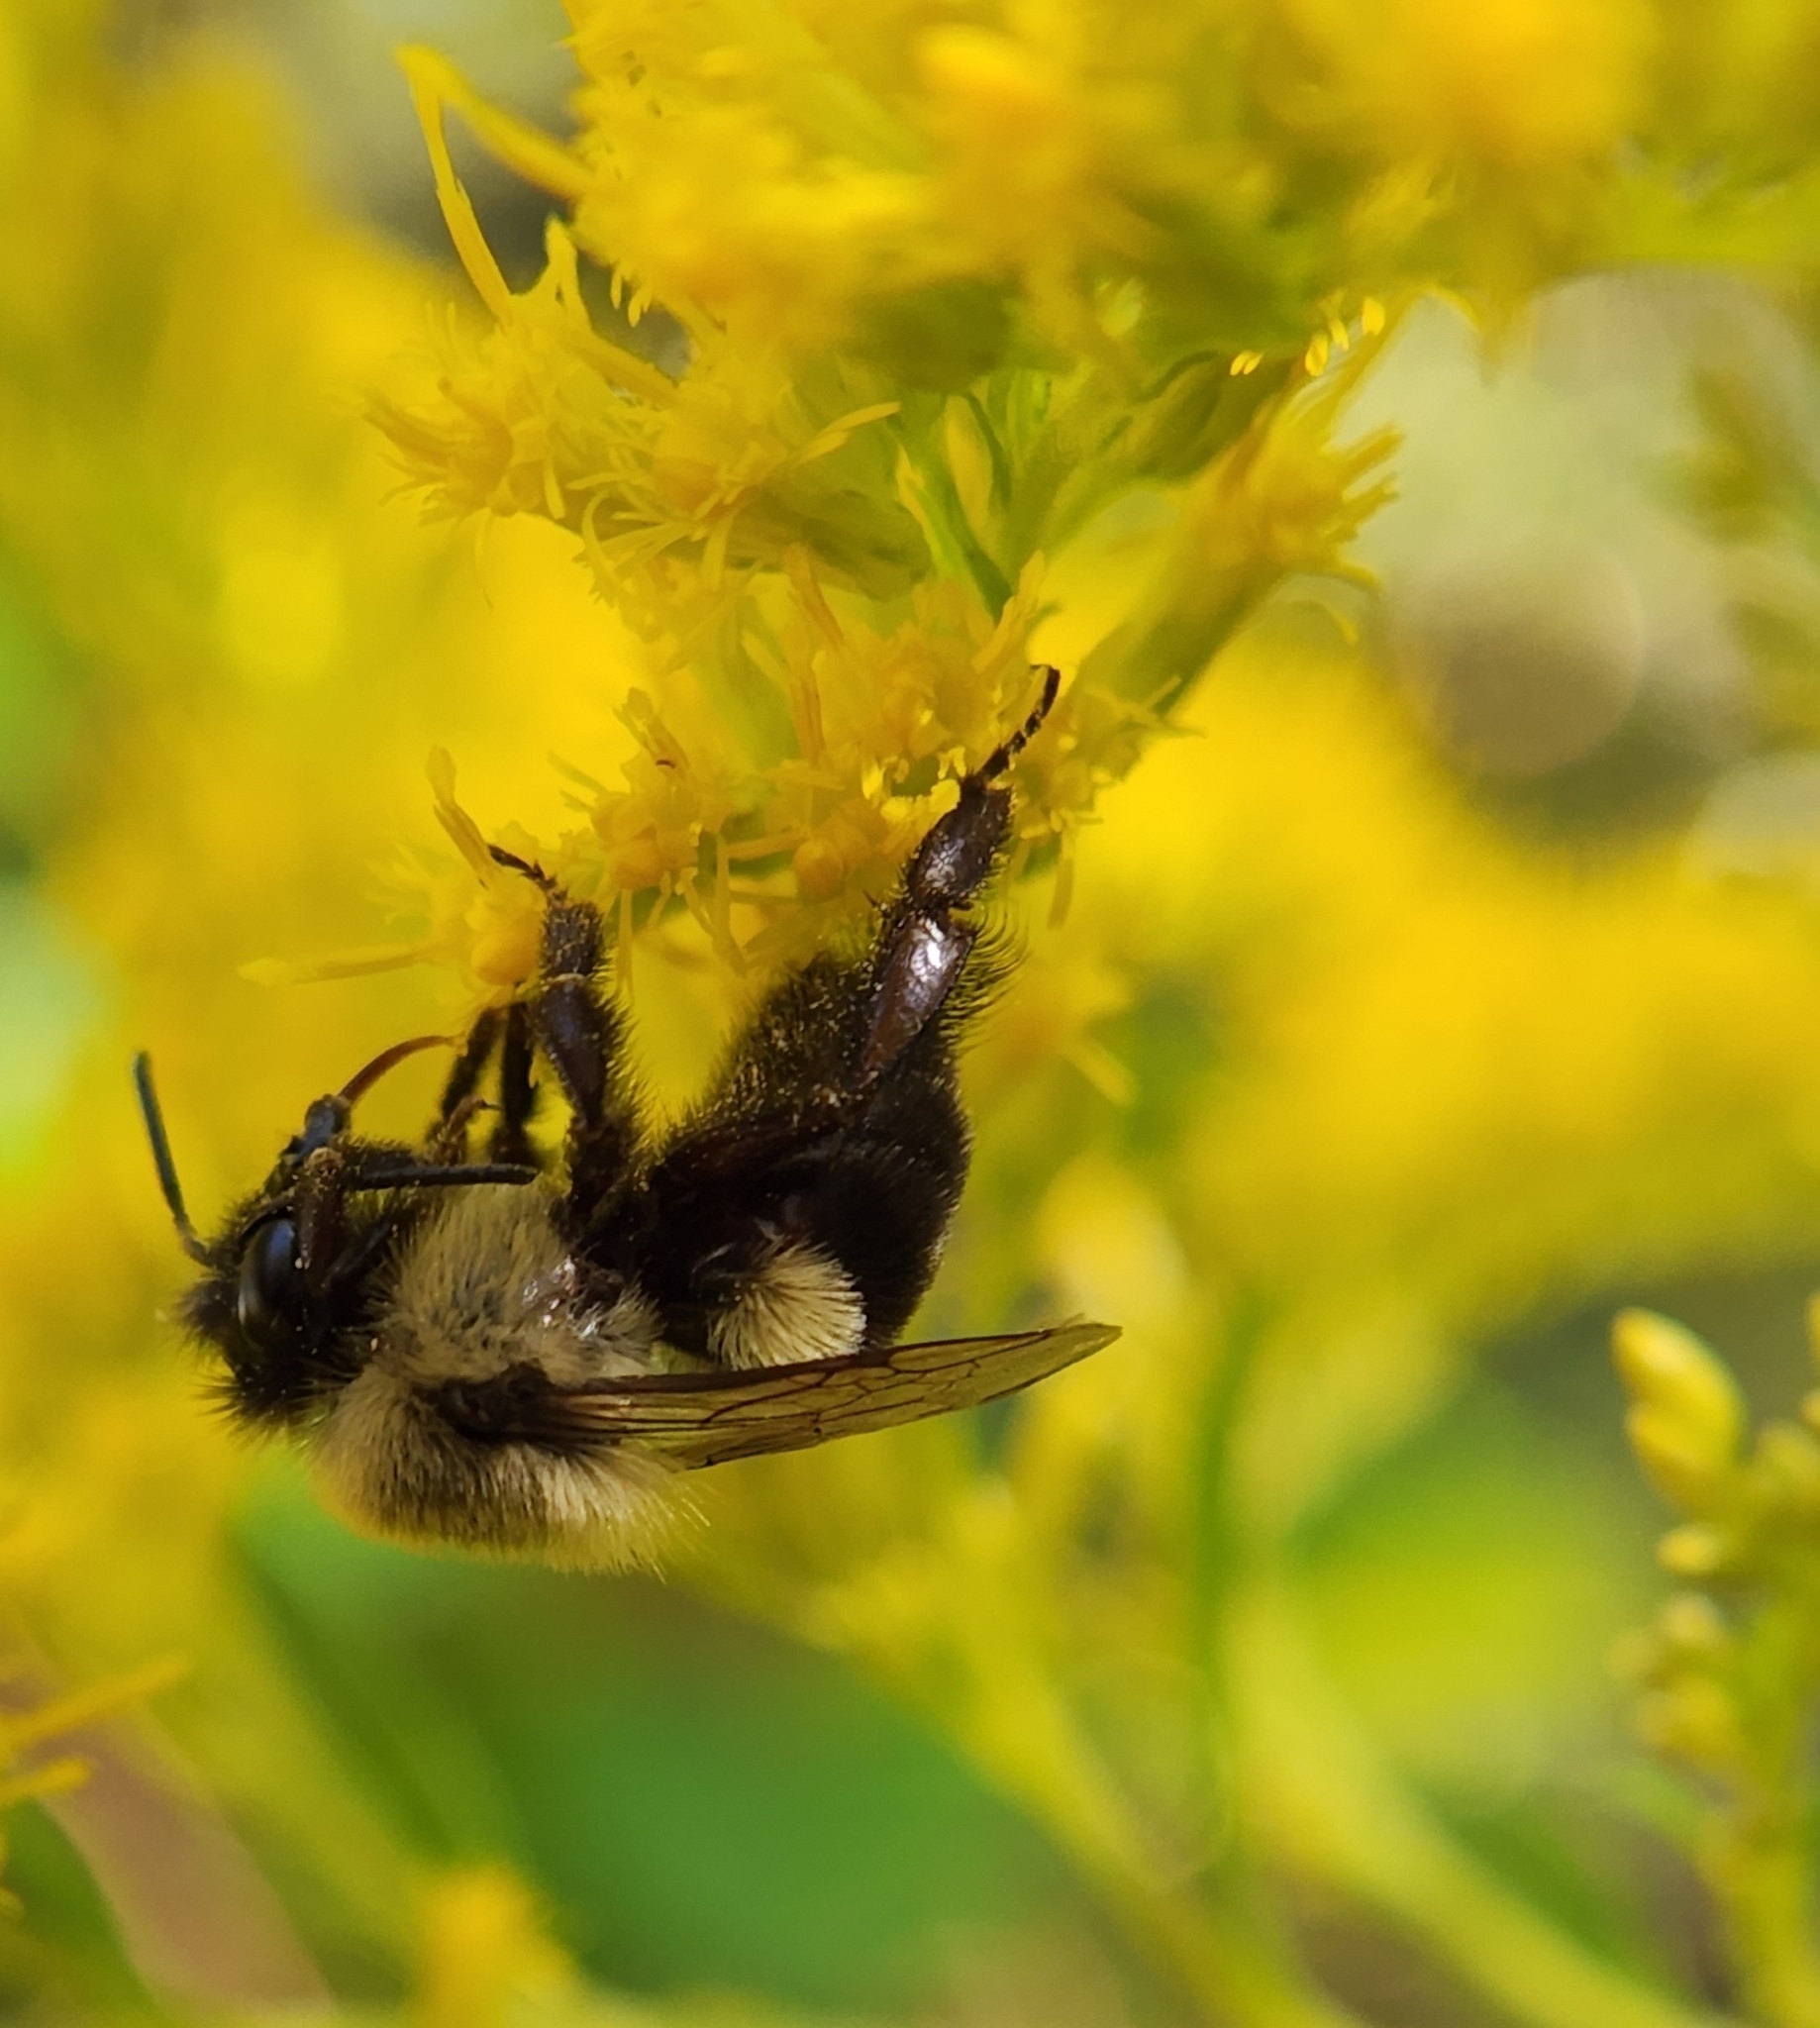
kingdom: Animalia
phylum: Arthropoda
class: Insecta
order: Hymenoptera
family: Apidae
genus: Bombus
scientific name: Bombus impatiens
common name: Common eastern bumble bee
